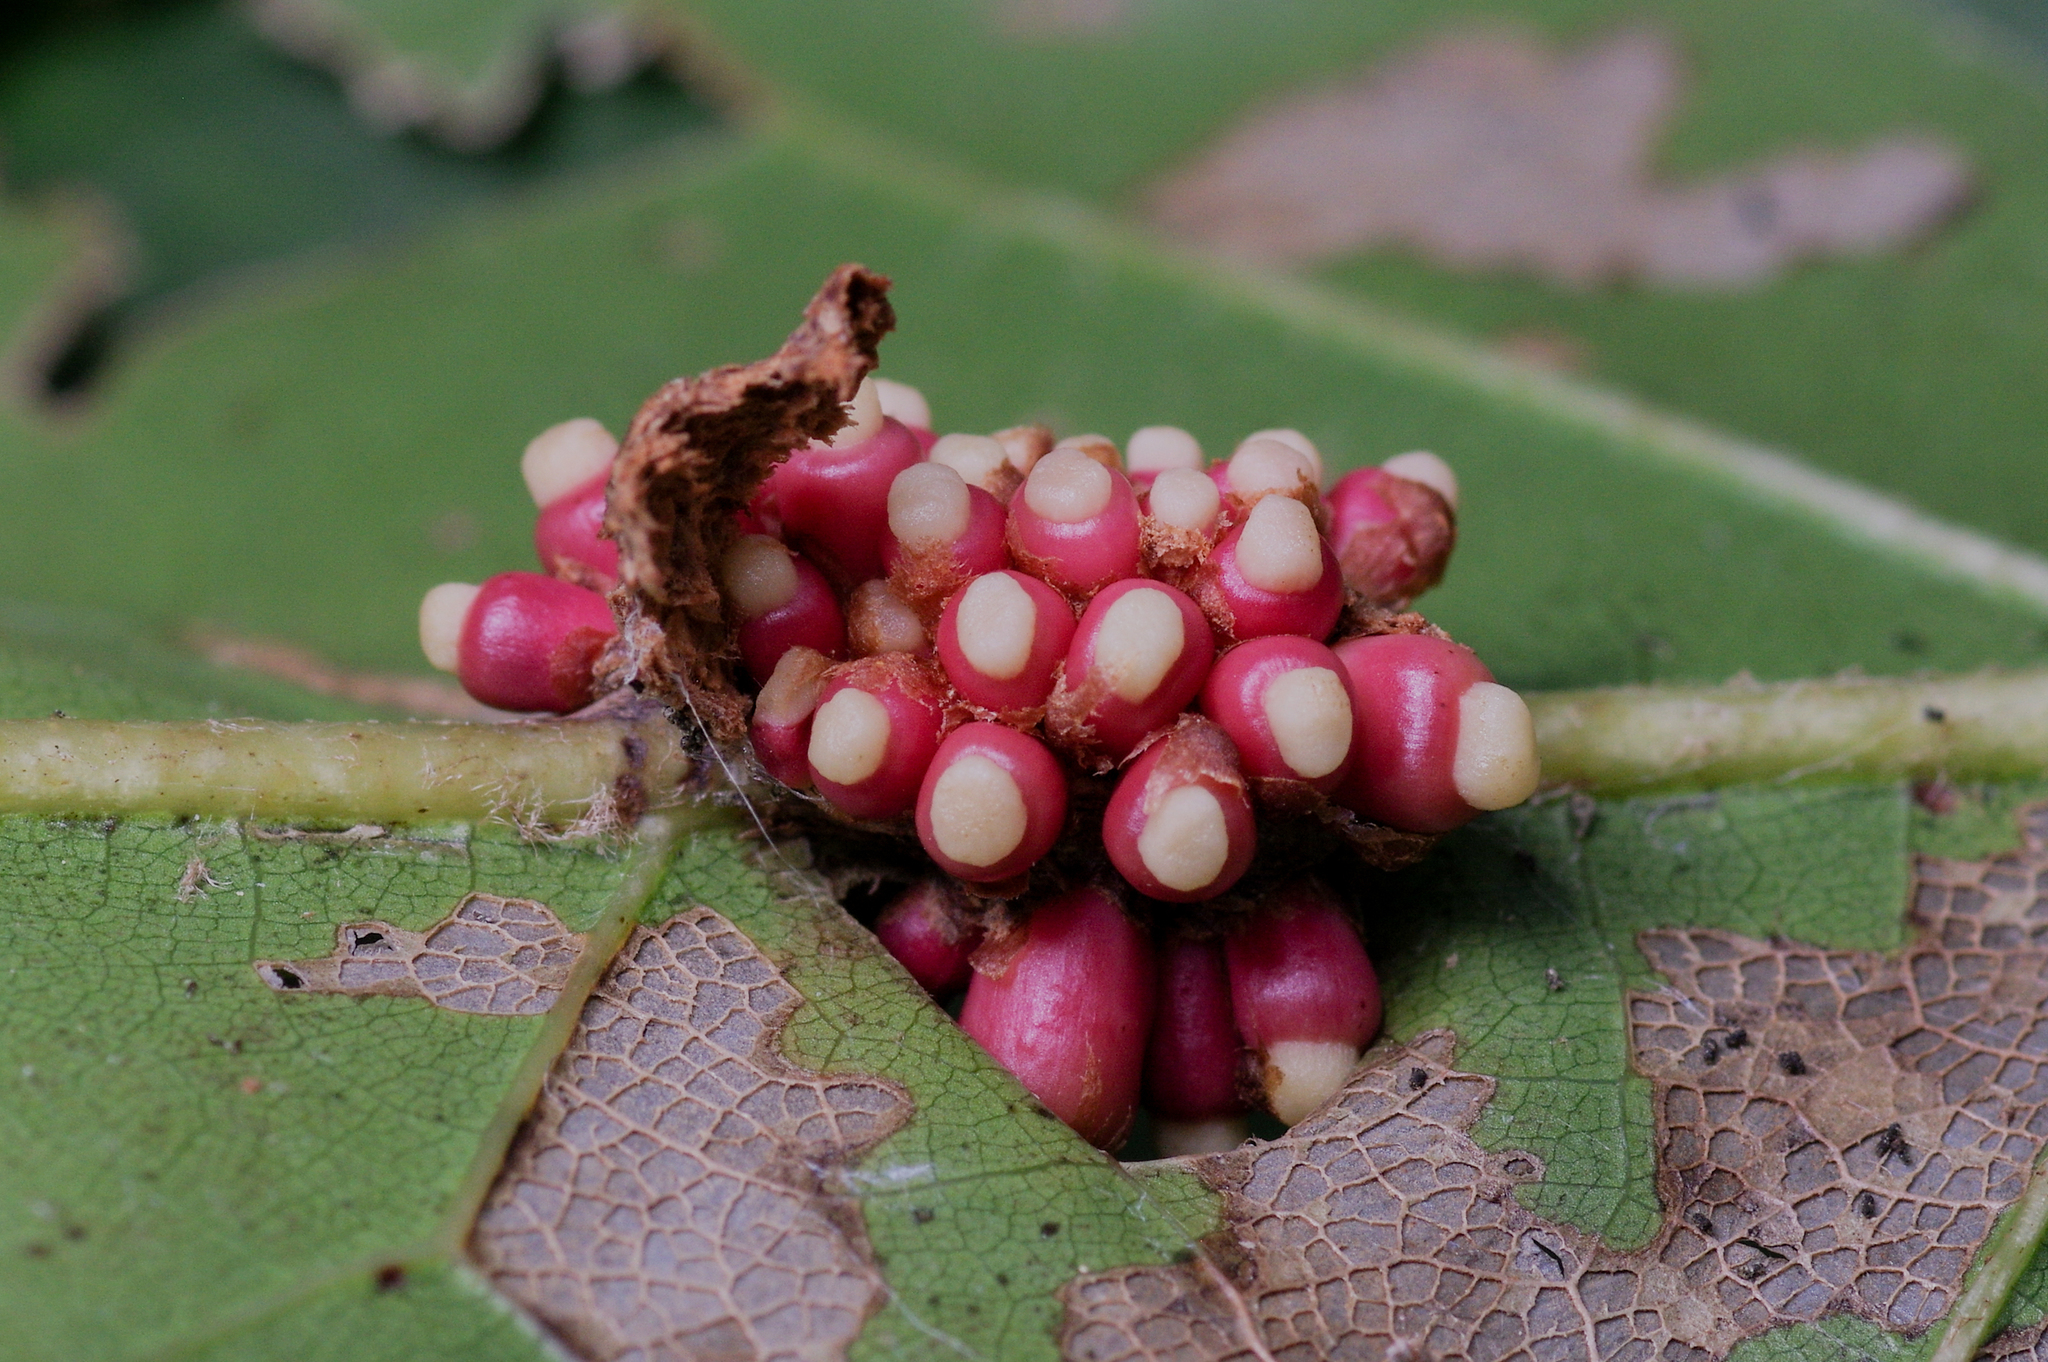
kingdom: Animalia
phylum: Arthropoda
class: Insecta
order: Hymenoptera
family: Cynipidae
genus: Kokkocynips
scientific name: Kokkocynips decidua
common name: Oak wheat gall
